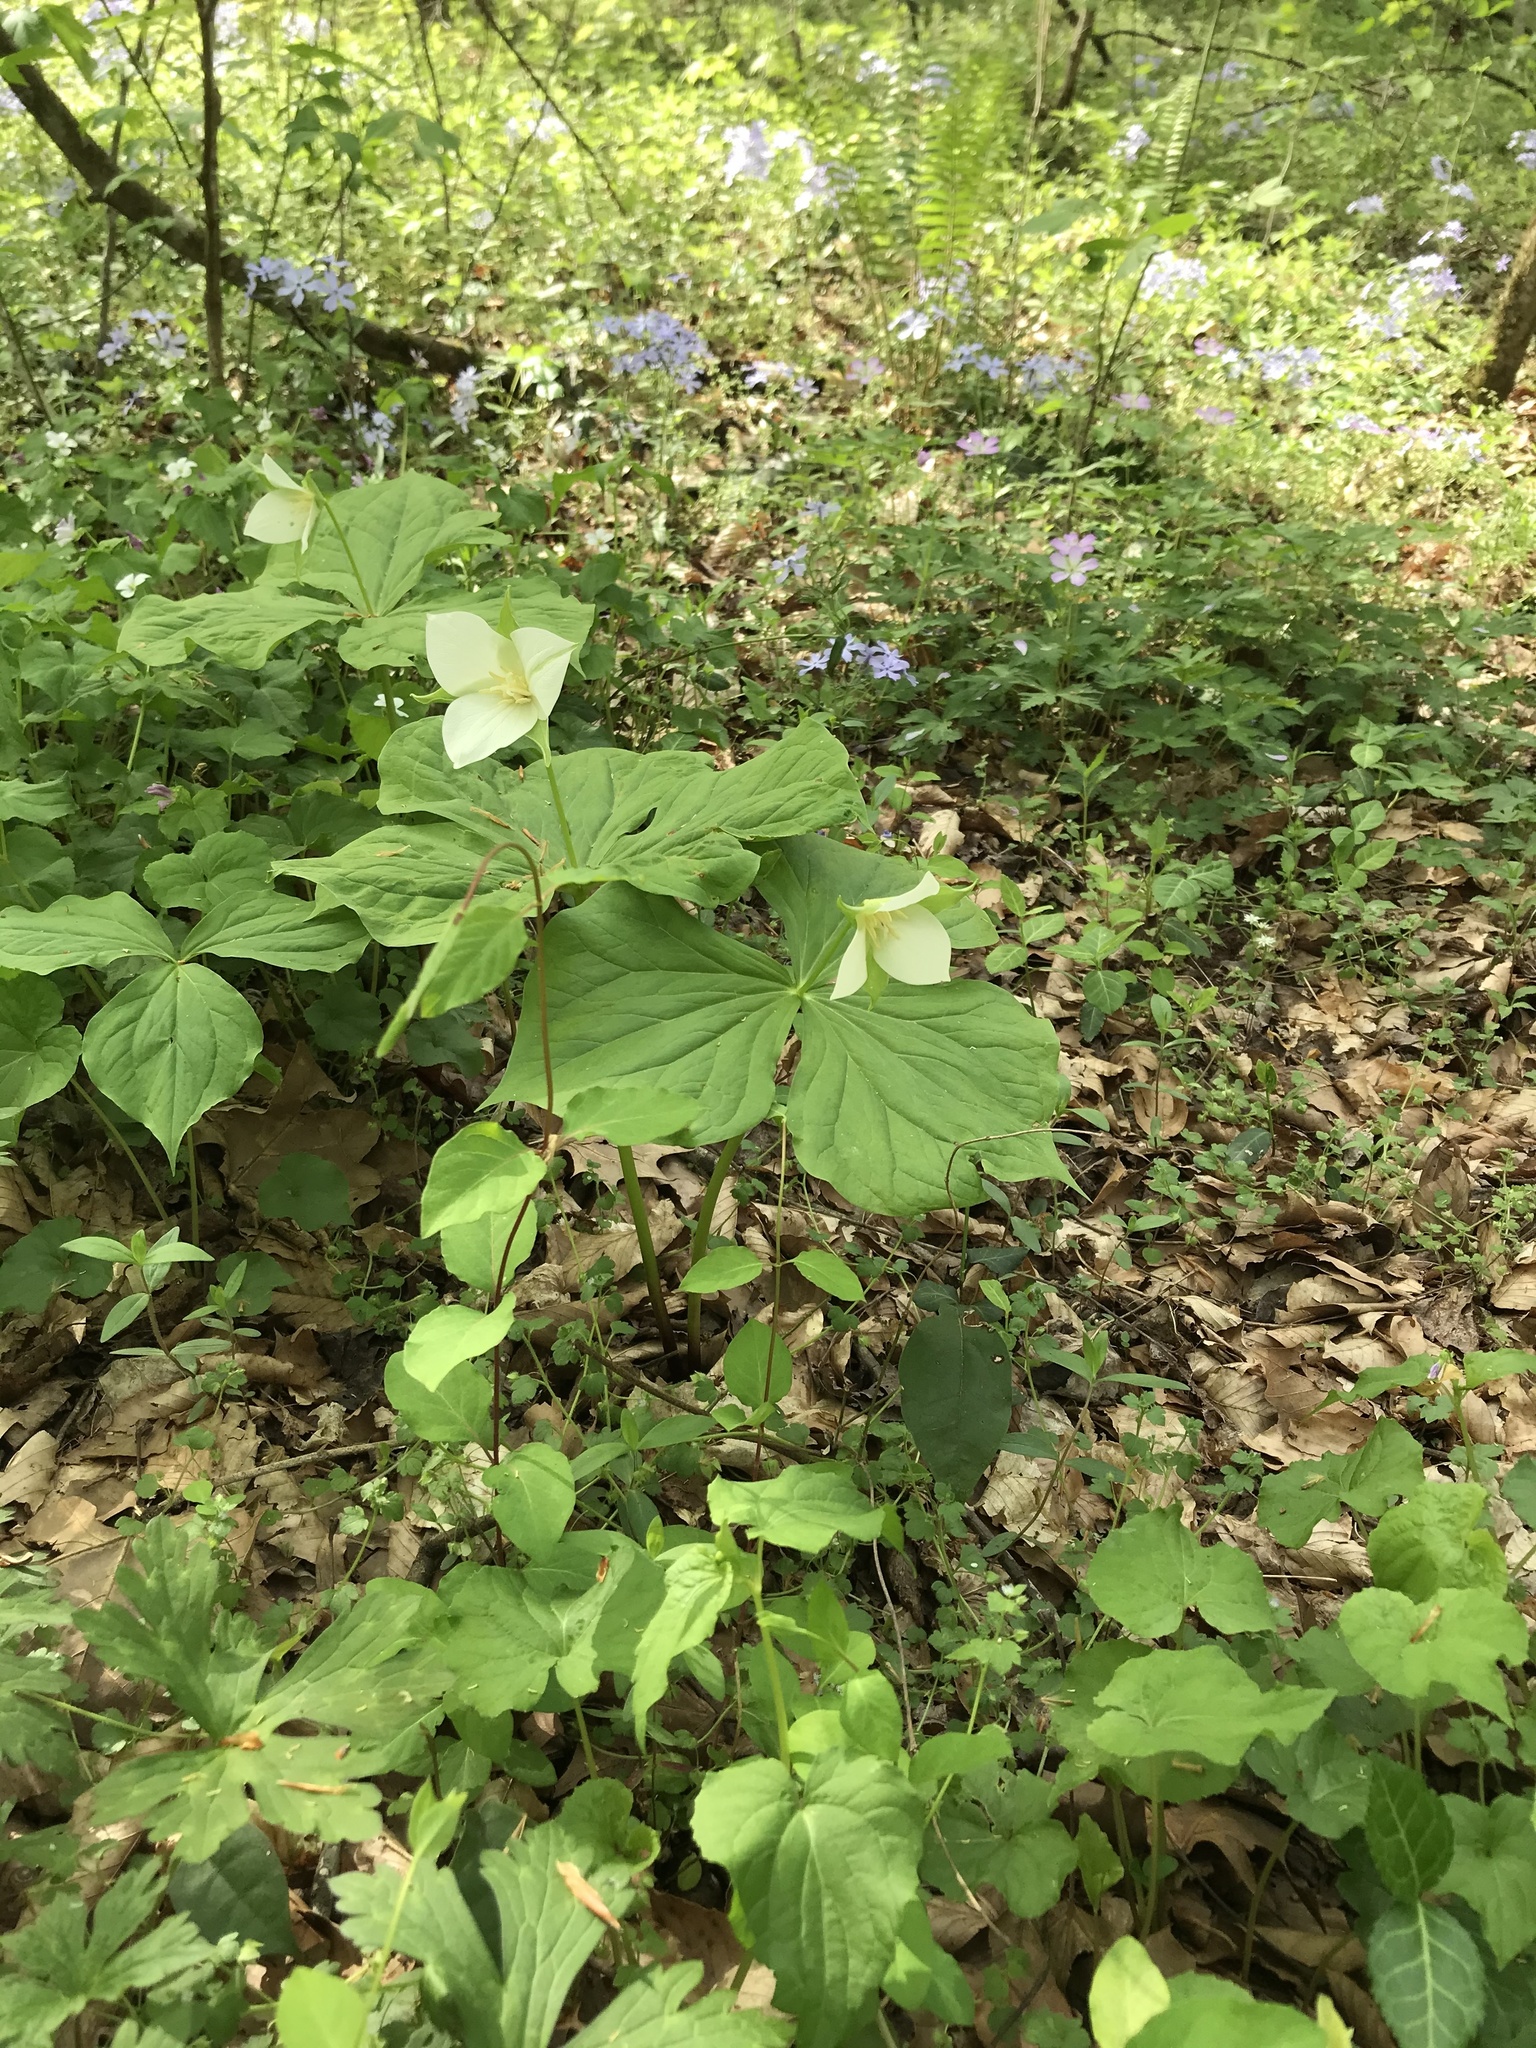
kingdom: Plantae
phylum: Tracheophyta
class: Liliopsida
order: Liliales
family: Melanthiaceae
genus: Trillium
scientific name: Trillium flexipes
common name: Drooping trillium
